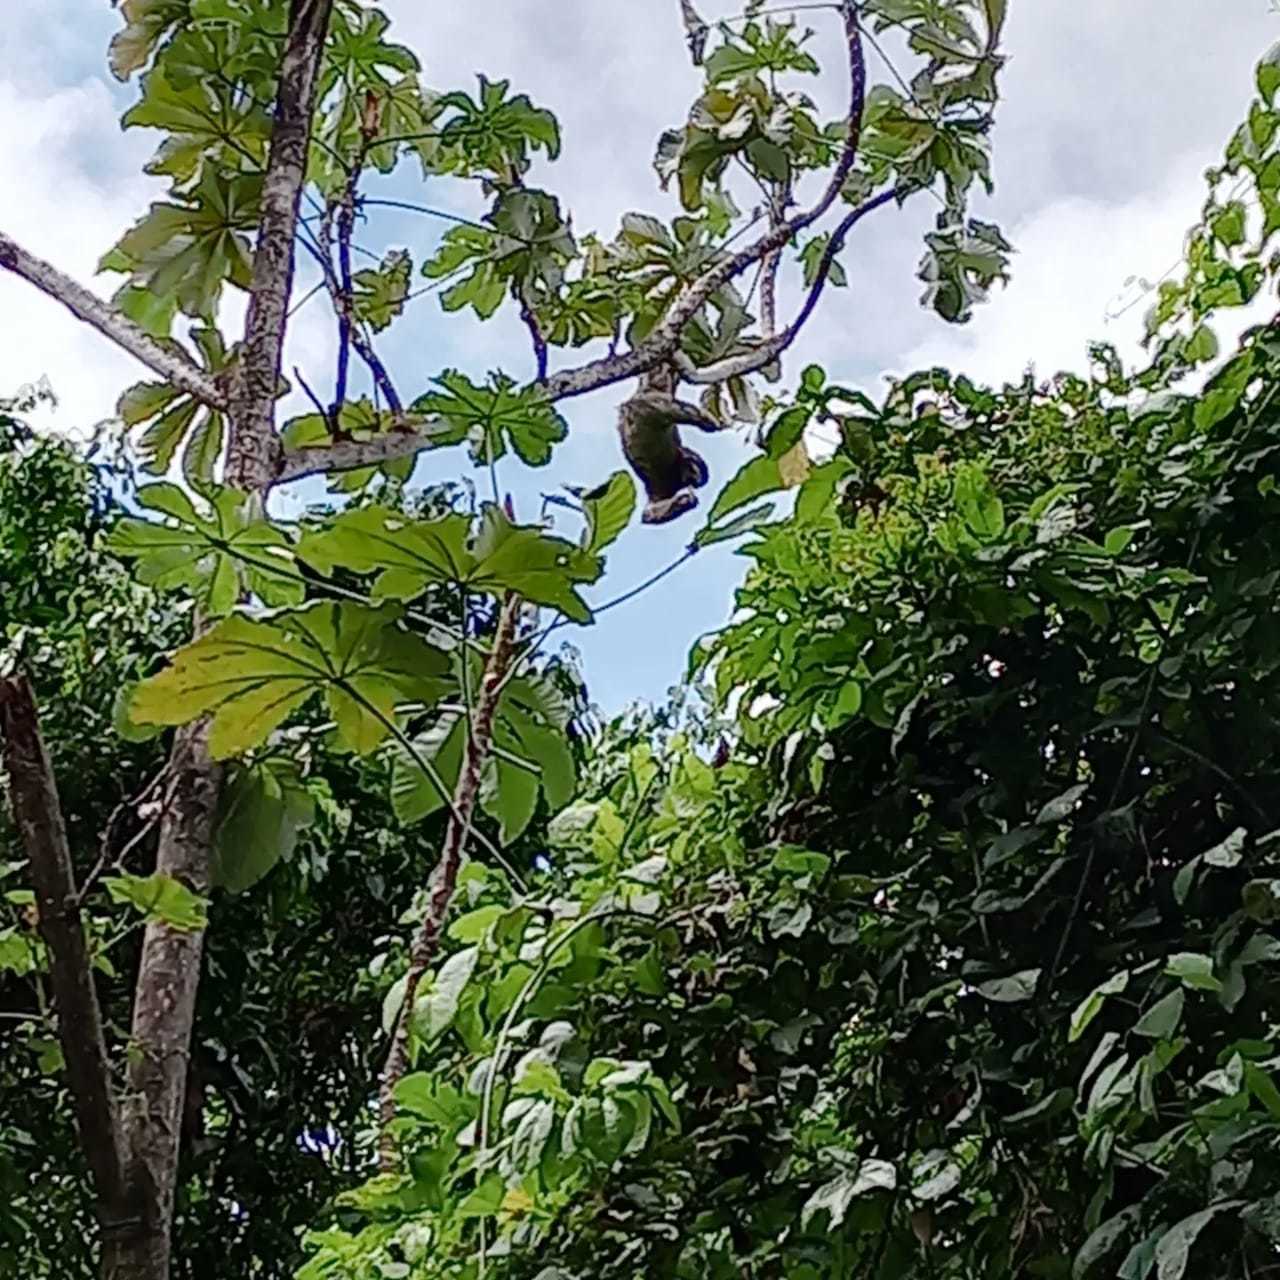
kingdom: Animalia
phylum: Chordata
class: Mammalia
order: Pilosa
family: Bradypodidae
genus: Bradypus
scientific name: Bradypus variegatus
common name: Brown-throated three-toed sloth
